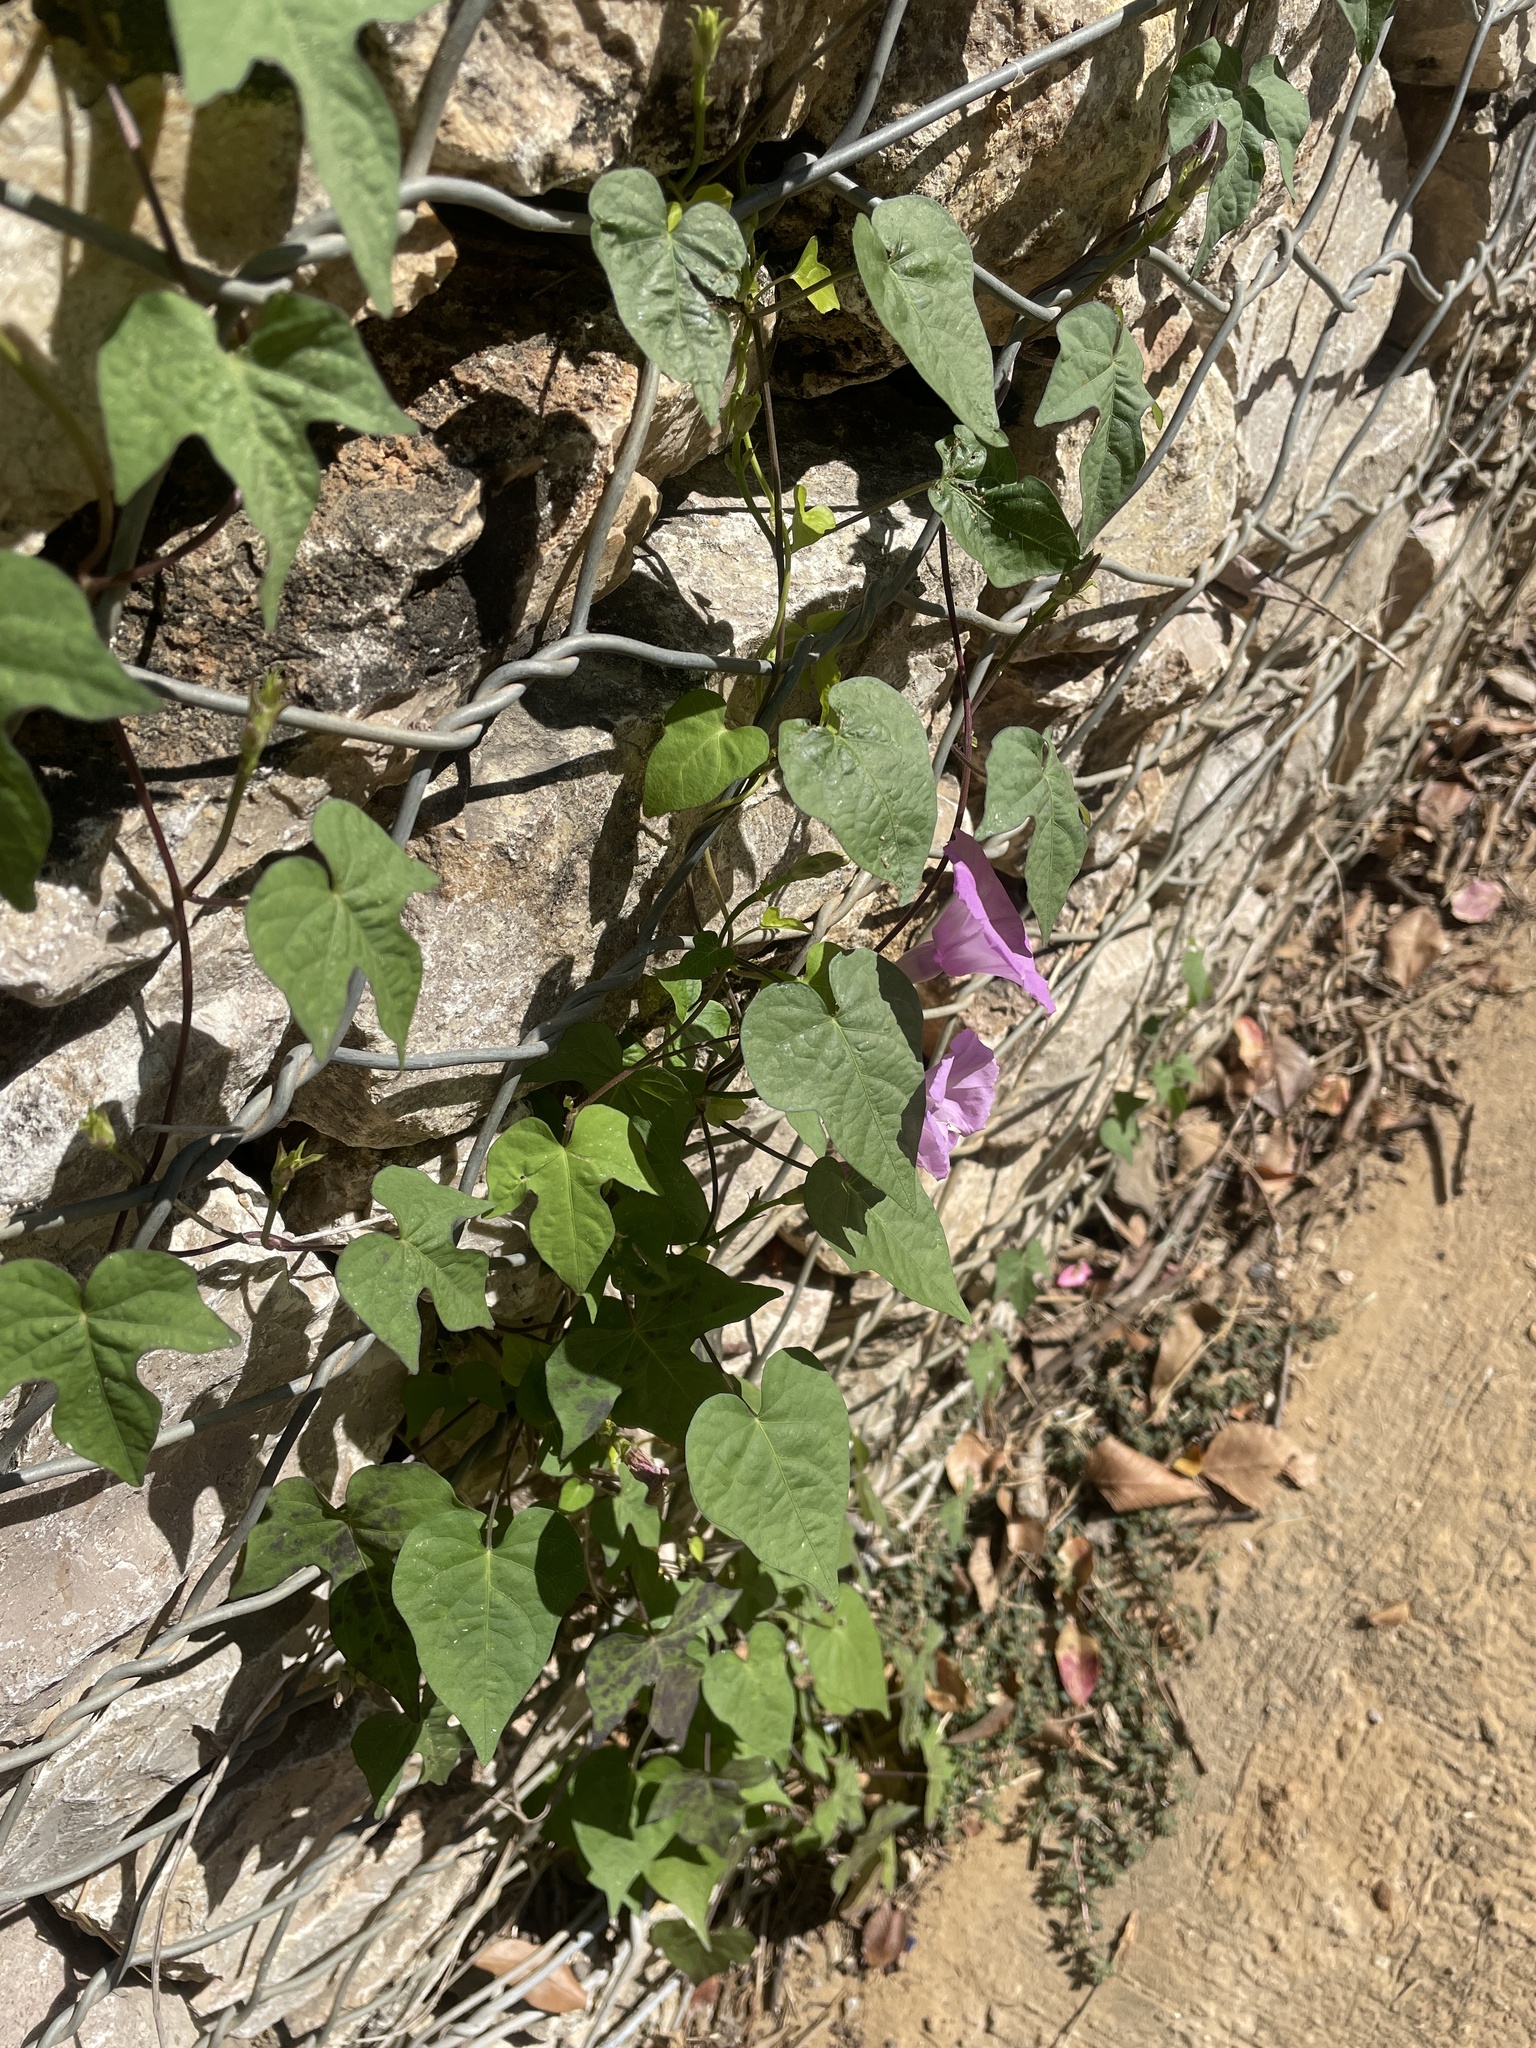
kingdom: Plantae
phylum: Tracheophyta
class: Magnoliopsida
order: Solanales
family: Convolvulaceae
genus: Ipomoea
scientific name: Ipomoea cordatotriloba
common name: Cotton morning glory
